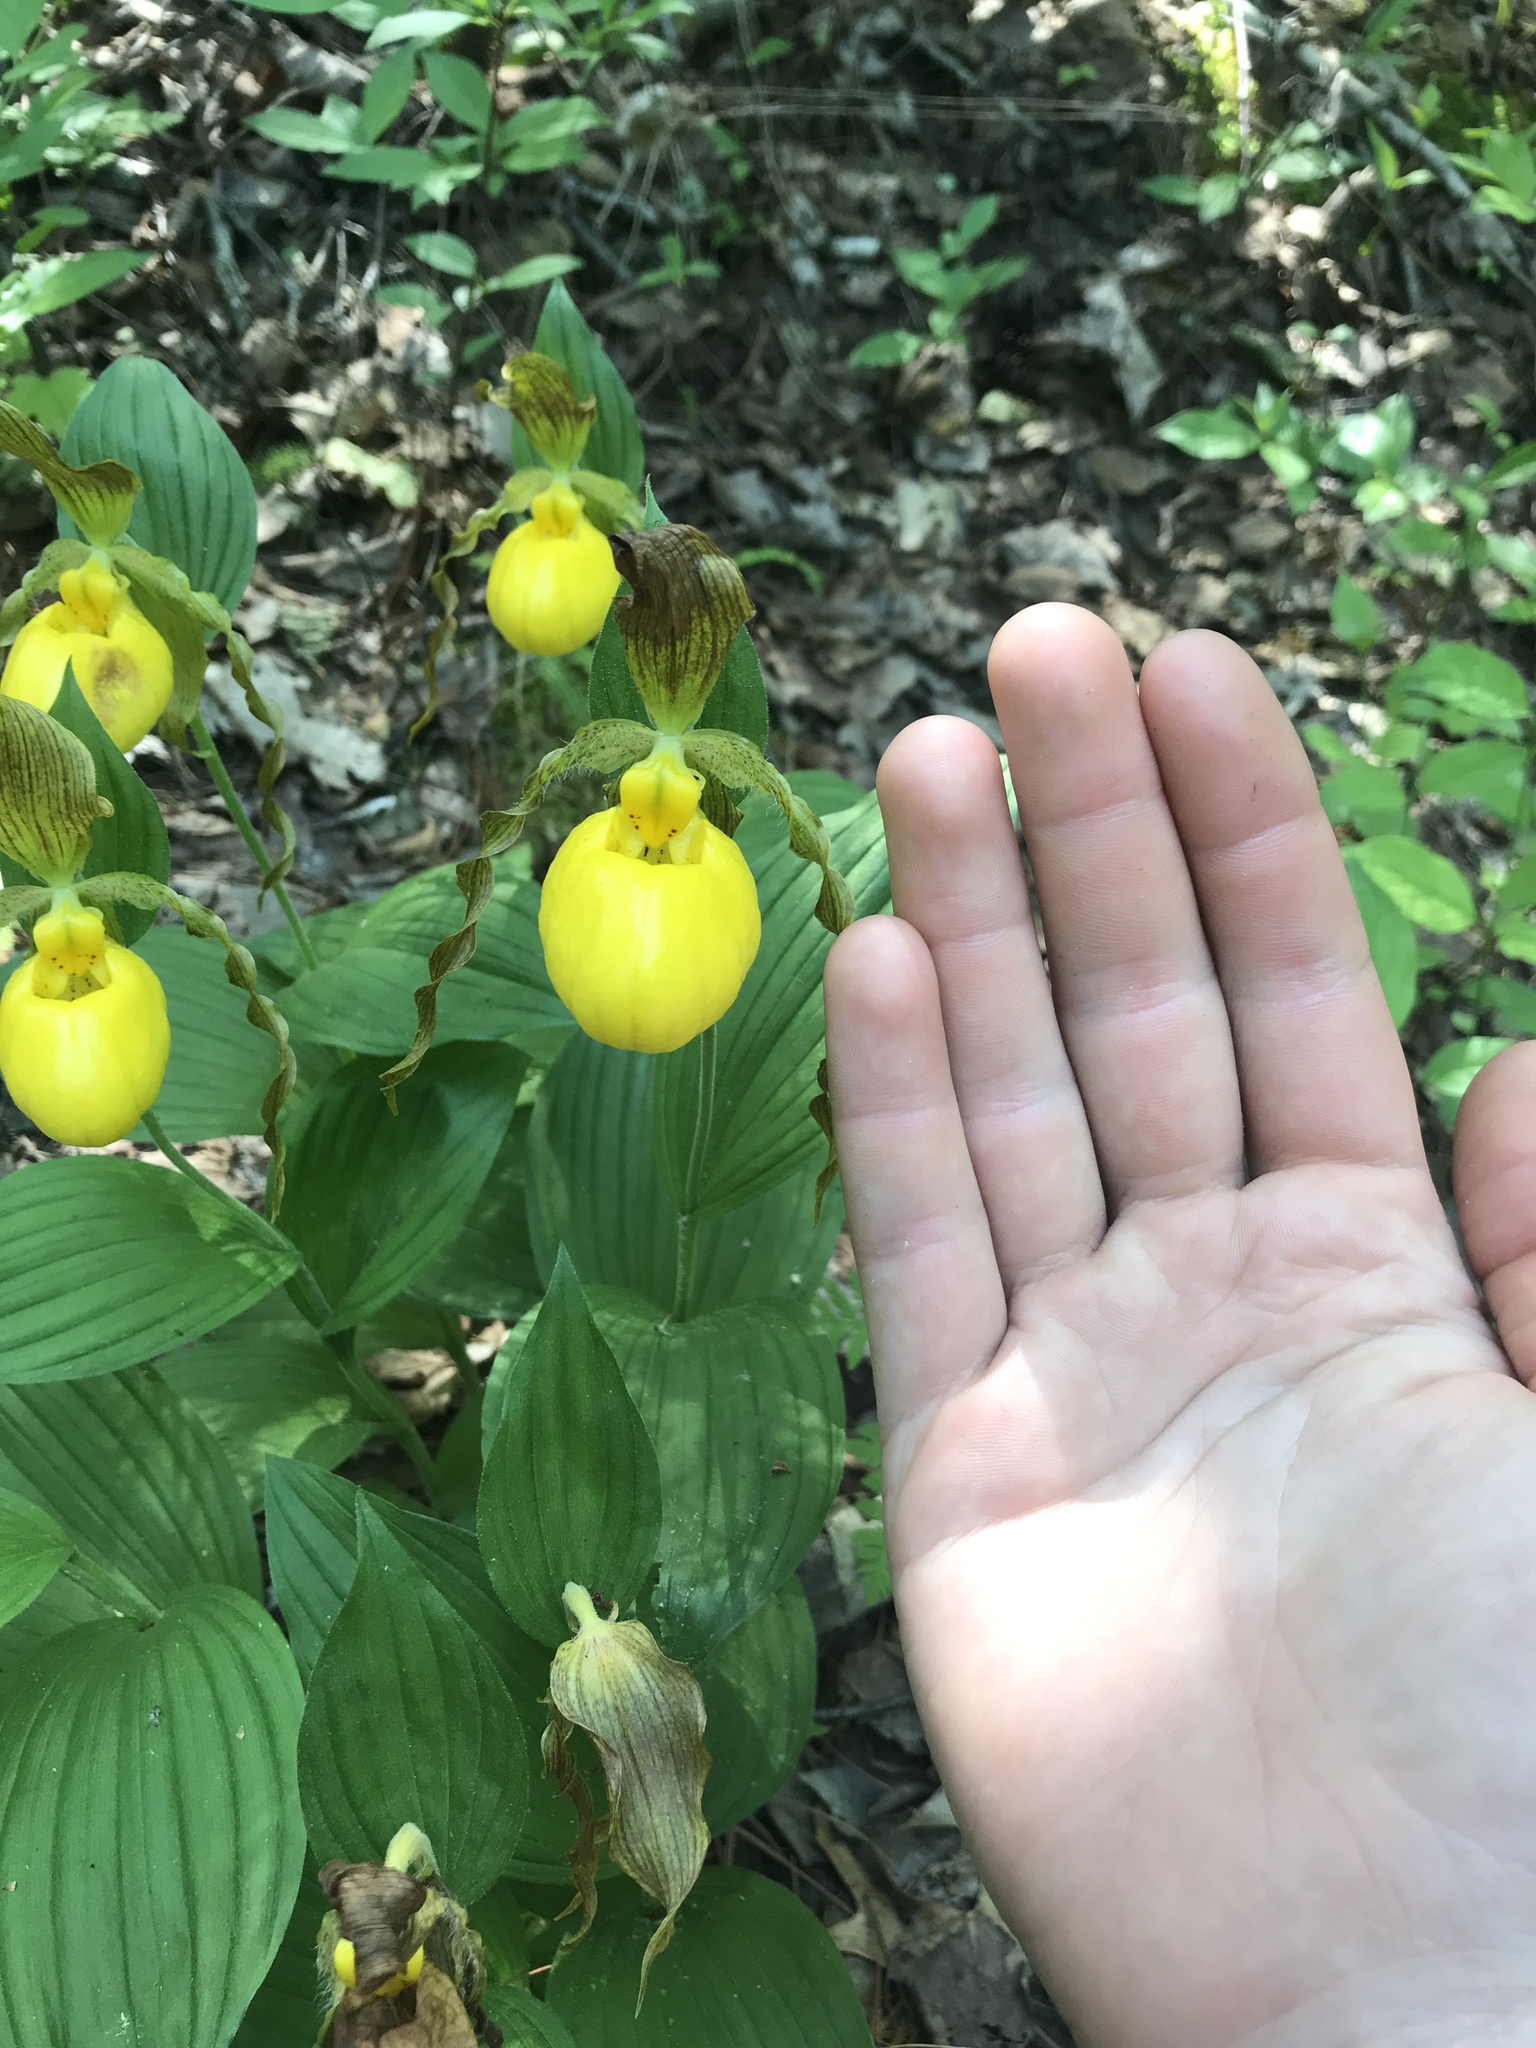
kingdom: Plantae
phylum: Tracheophyta
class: Liliopsida
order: Asparagales
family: Orchidaceae
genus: Cypripedium
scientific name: Cypripedium parviflorum
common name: American yellow lady's-slipper
